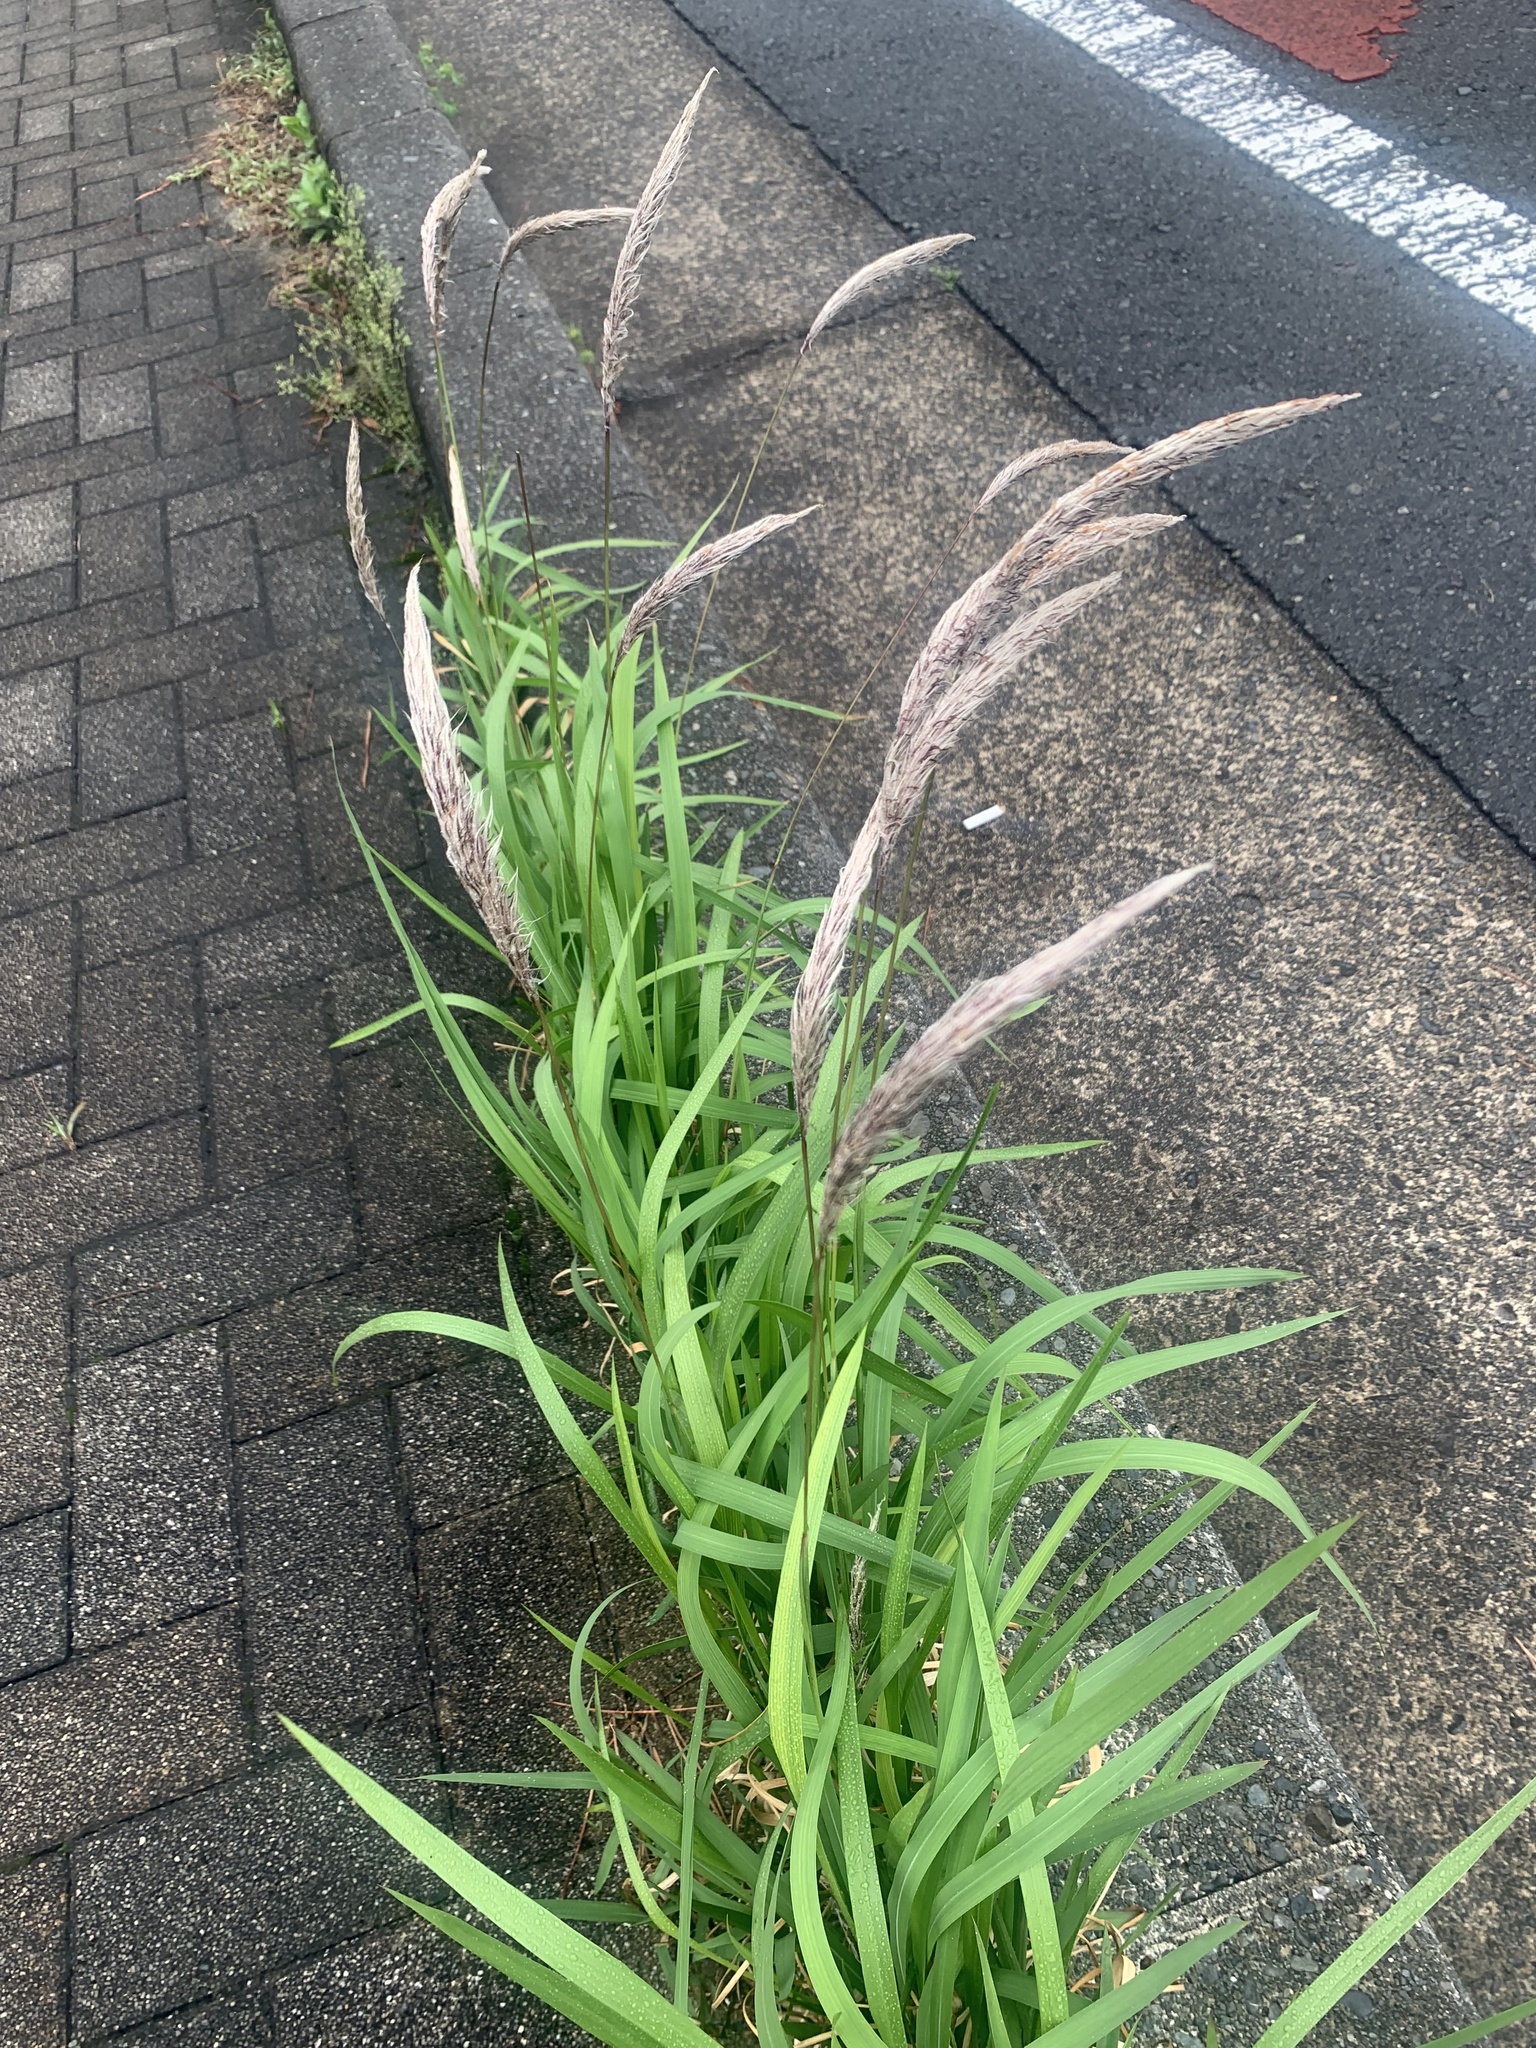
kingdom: Plantae
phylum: Tracheophyta
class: Liliopsida
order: Poales
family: Poaceae
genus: Imperata
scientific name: Imperata cylindrica
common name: Cogongrass
